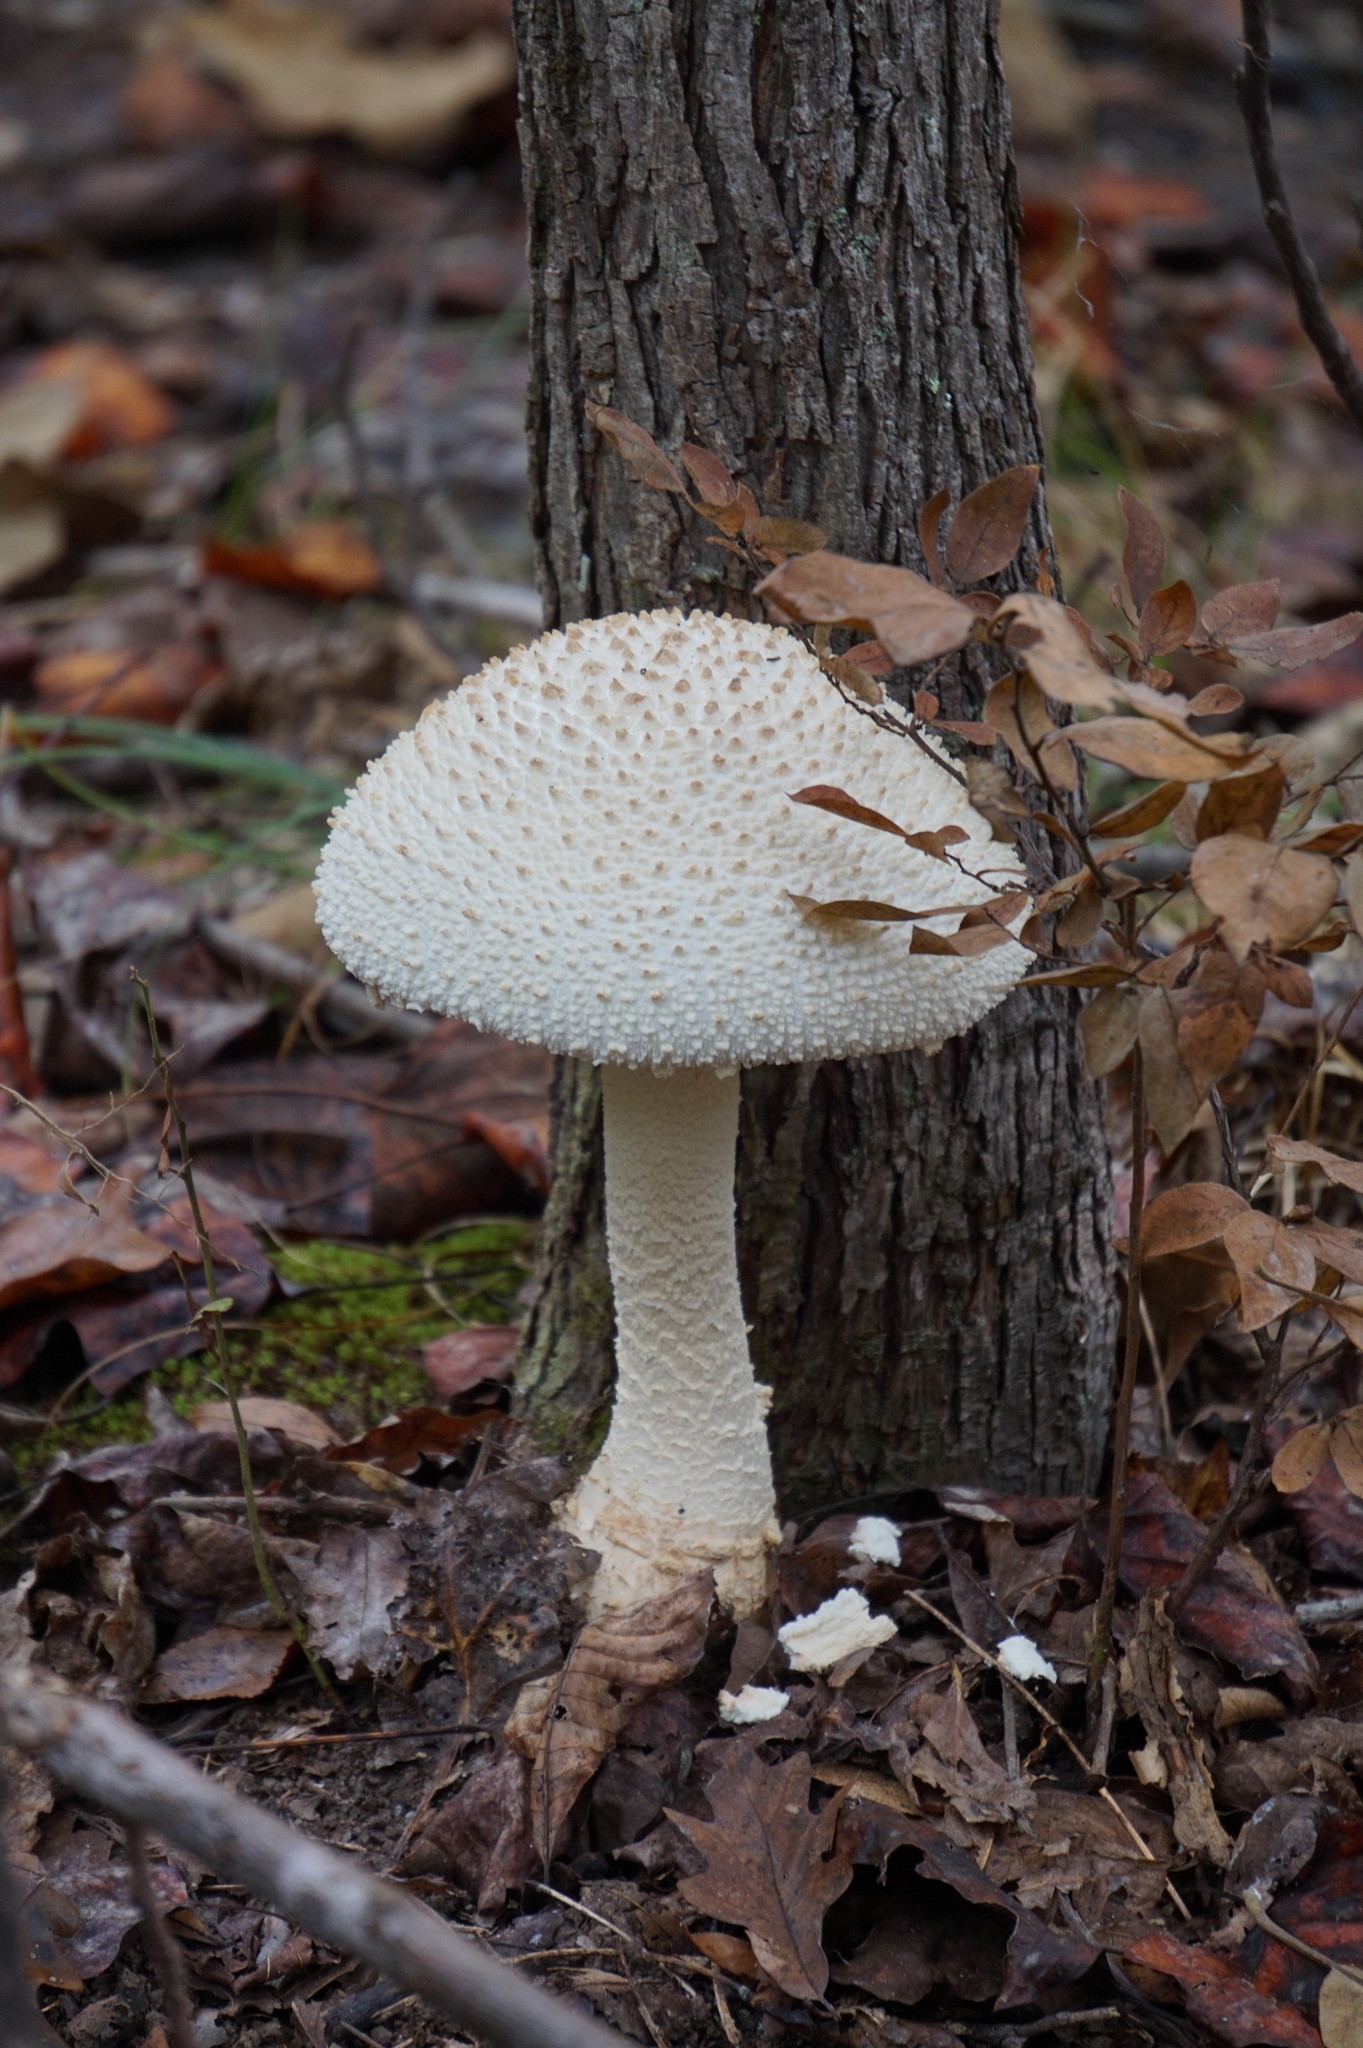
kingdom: Fungi
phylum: Basidiomycota
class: Agaricomycetes
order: Agaricales
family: Amanitaceae
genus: Amanita
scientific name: Amanita daucipes
